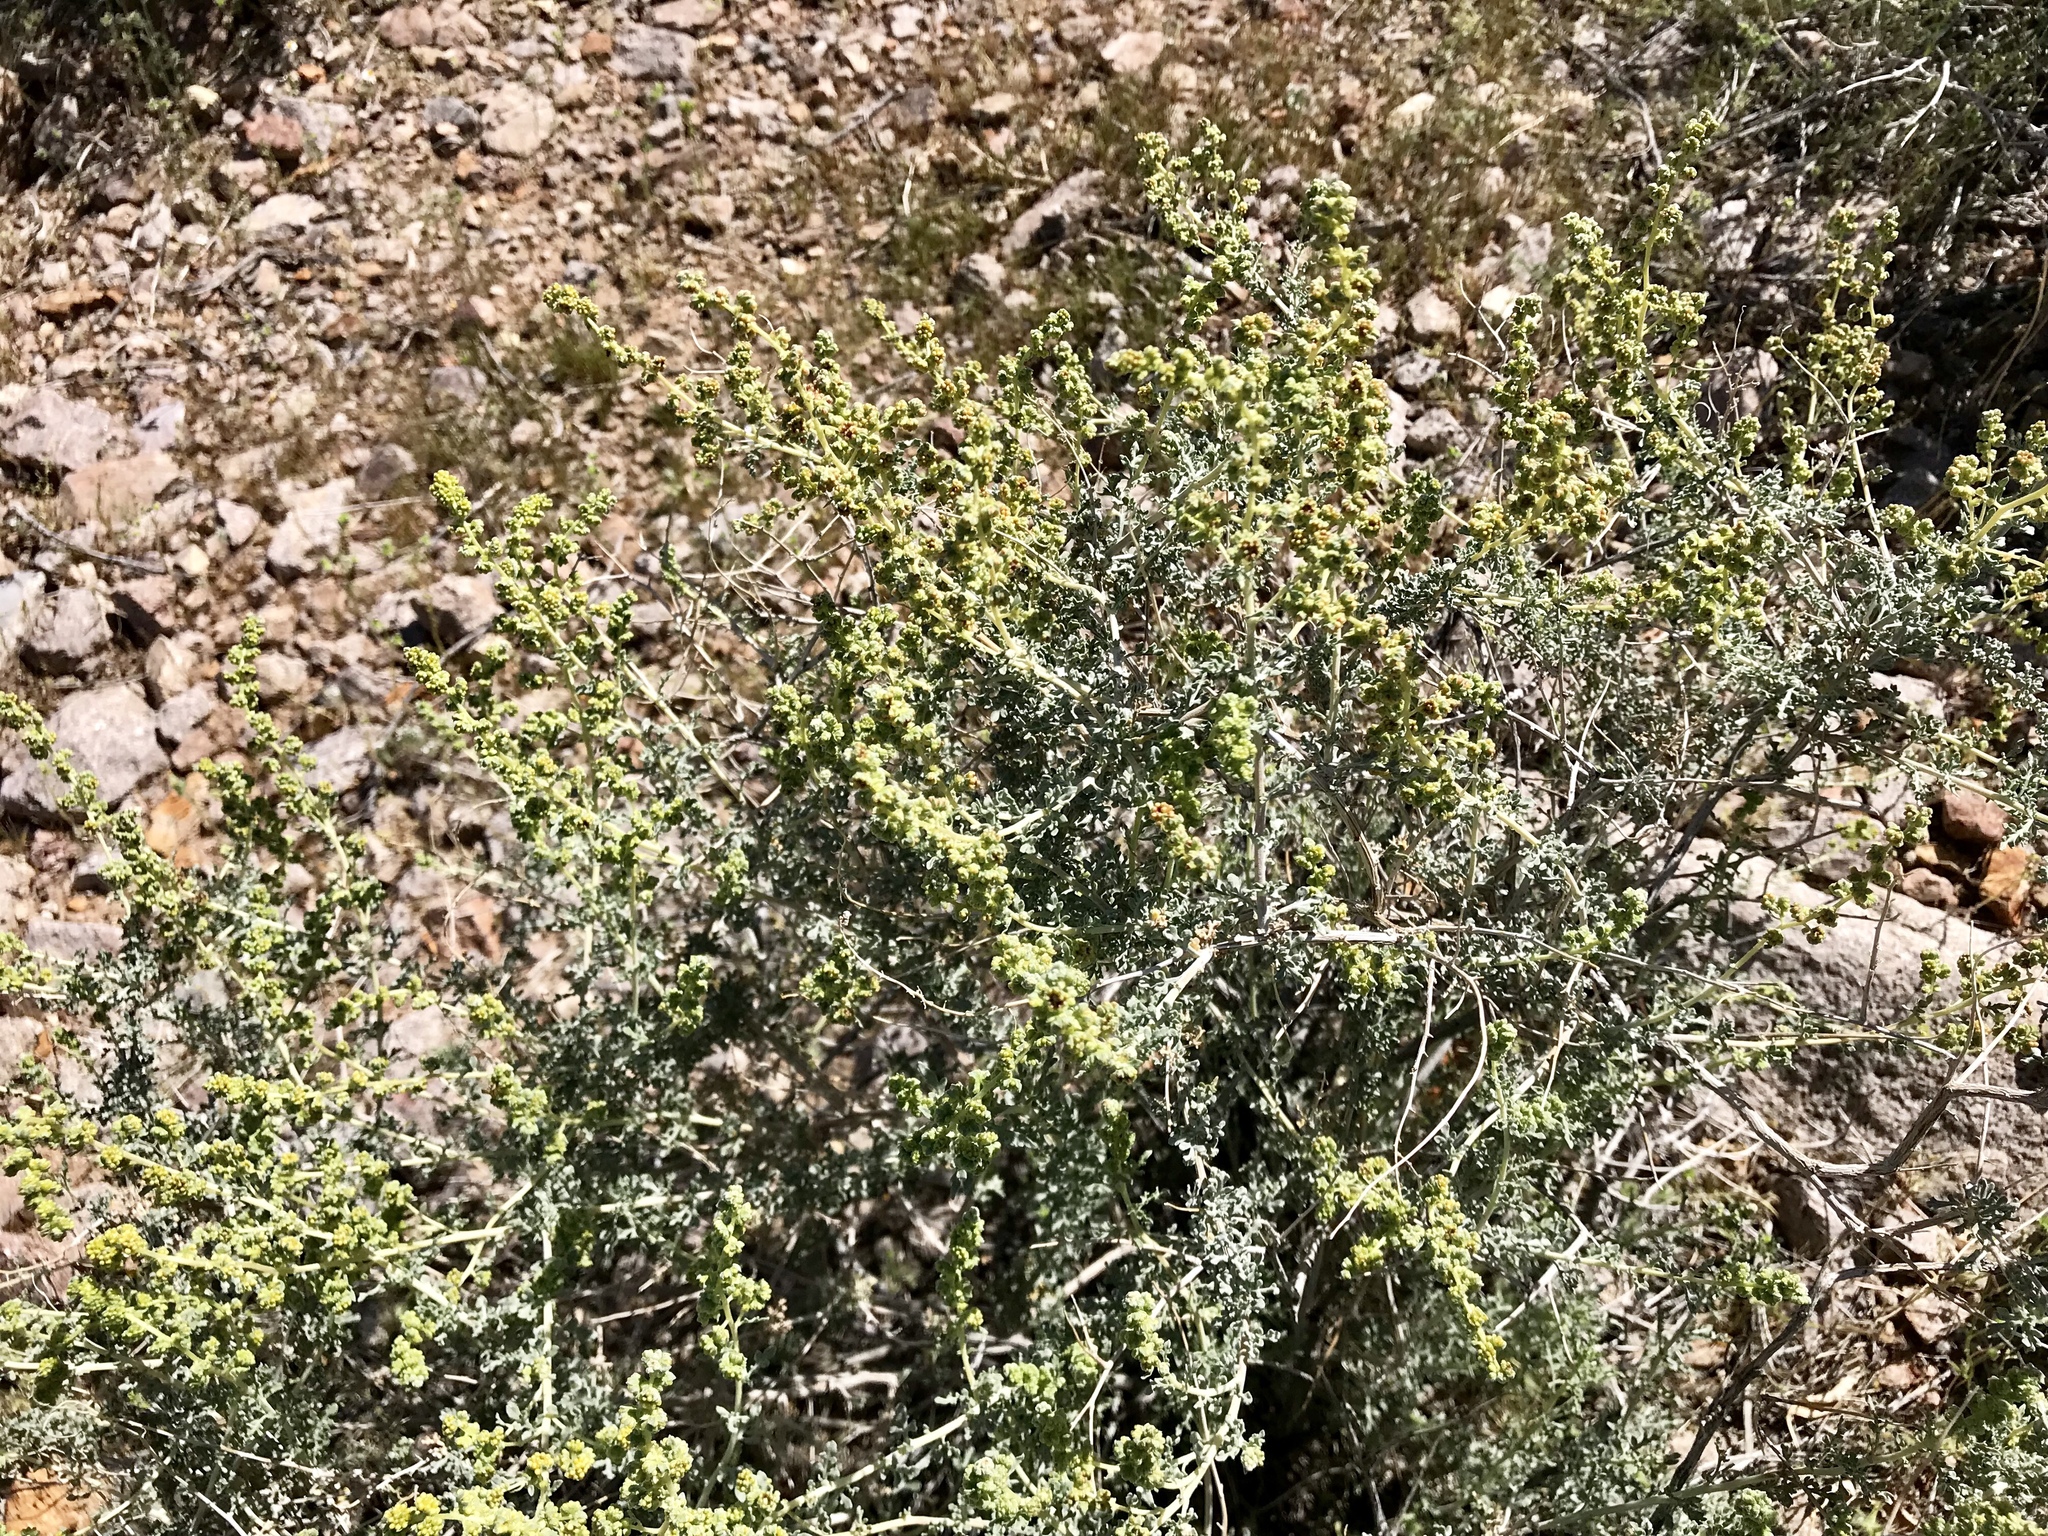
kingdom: Plantae
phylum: Tracheophyta
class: Magnoliopsida
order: Asterales
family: Asteraceae
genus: Ambrosia
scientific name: Ambrosia dumosa
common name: Bur-sage
